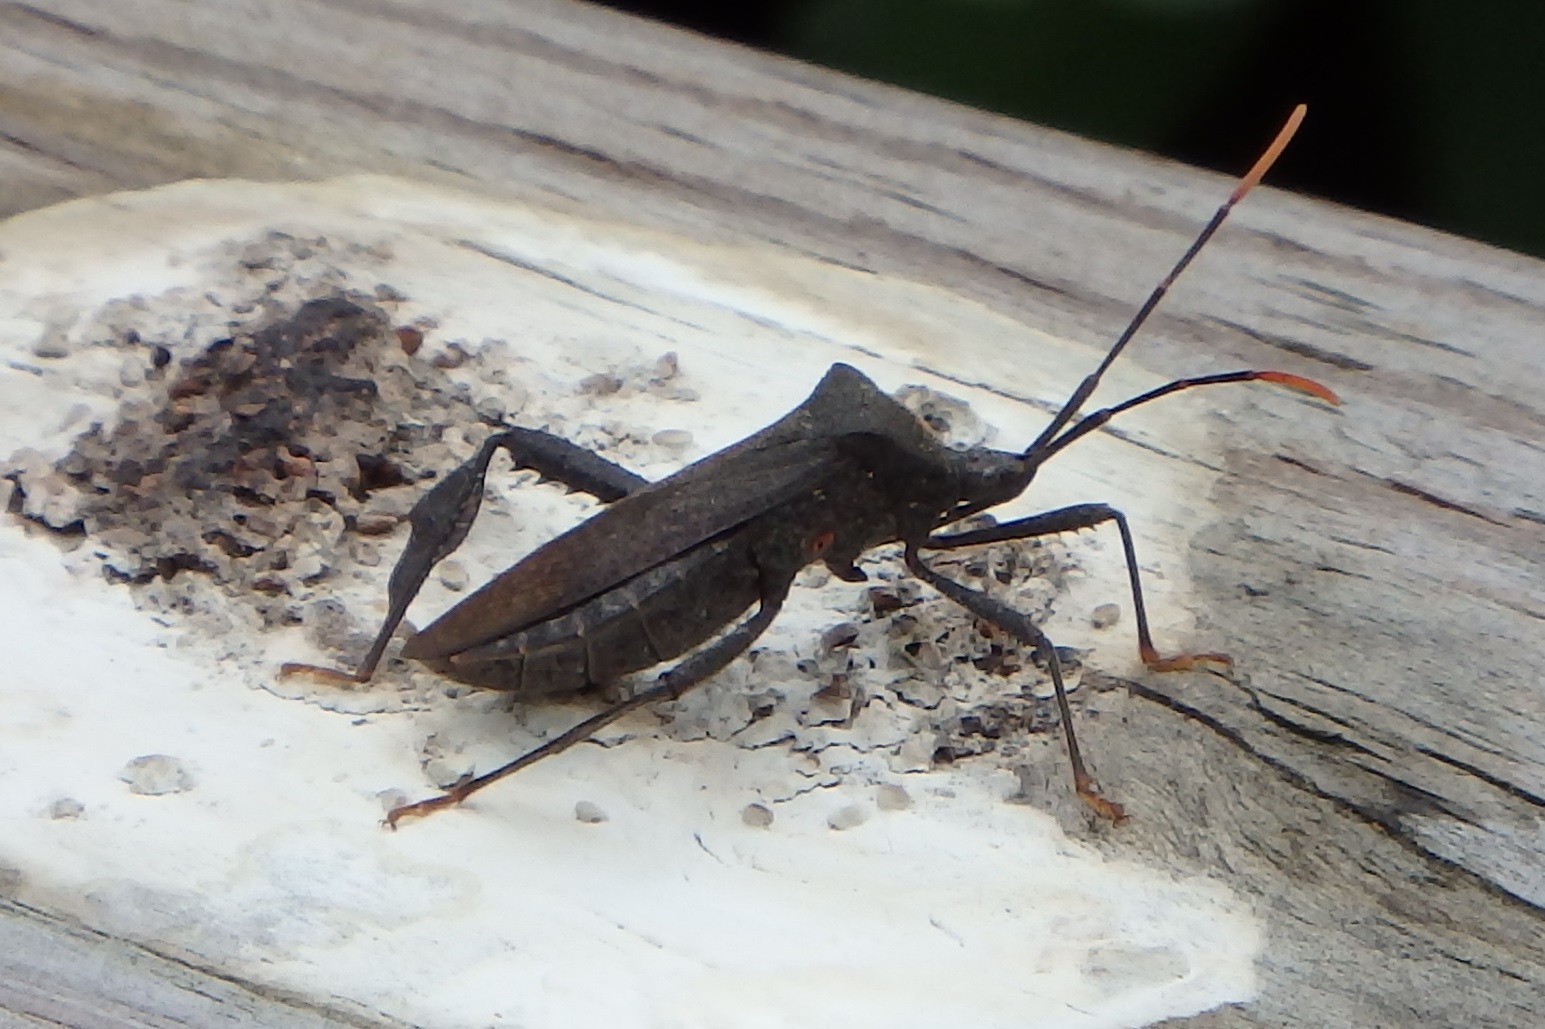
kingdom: Animalia
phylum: Arthropoda
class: Insecta
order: Hemiptera
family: Coreidae
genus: Acanthocephala
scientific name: Acanthocephala terminalis
